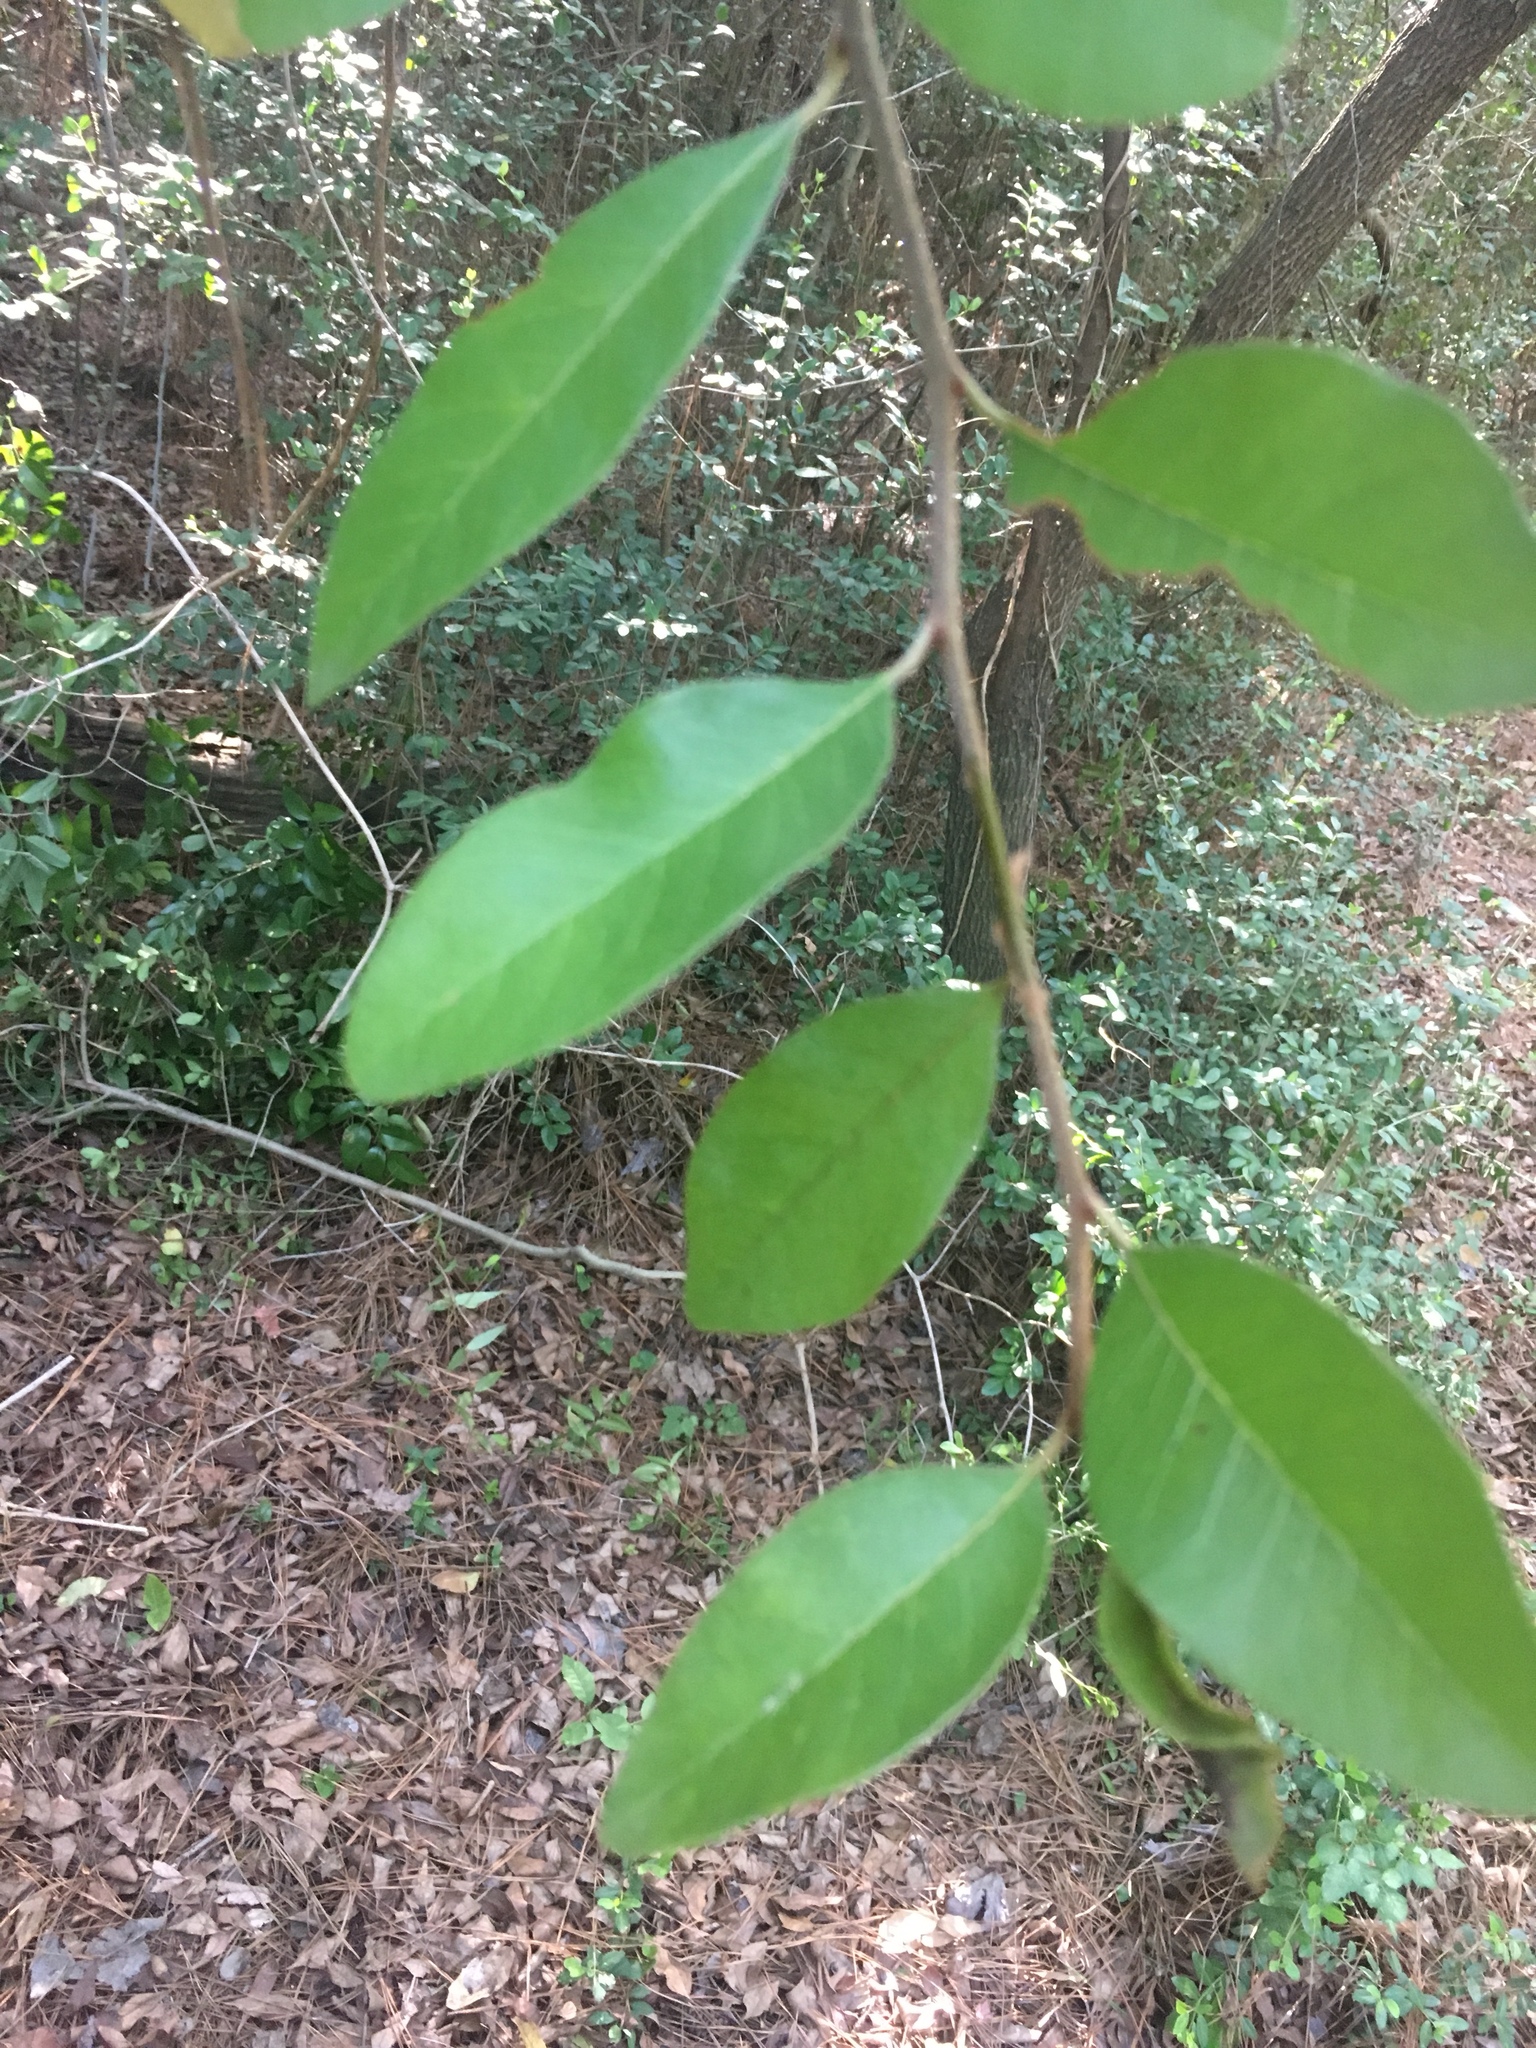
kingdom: Plantae
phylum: Tracheophyta
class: Magnoliopsida
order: Ericales
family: Sapotaceae
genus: Sideroxylon
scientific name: Sideroxylon lanuginosum
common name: Chittamwood
